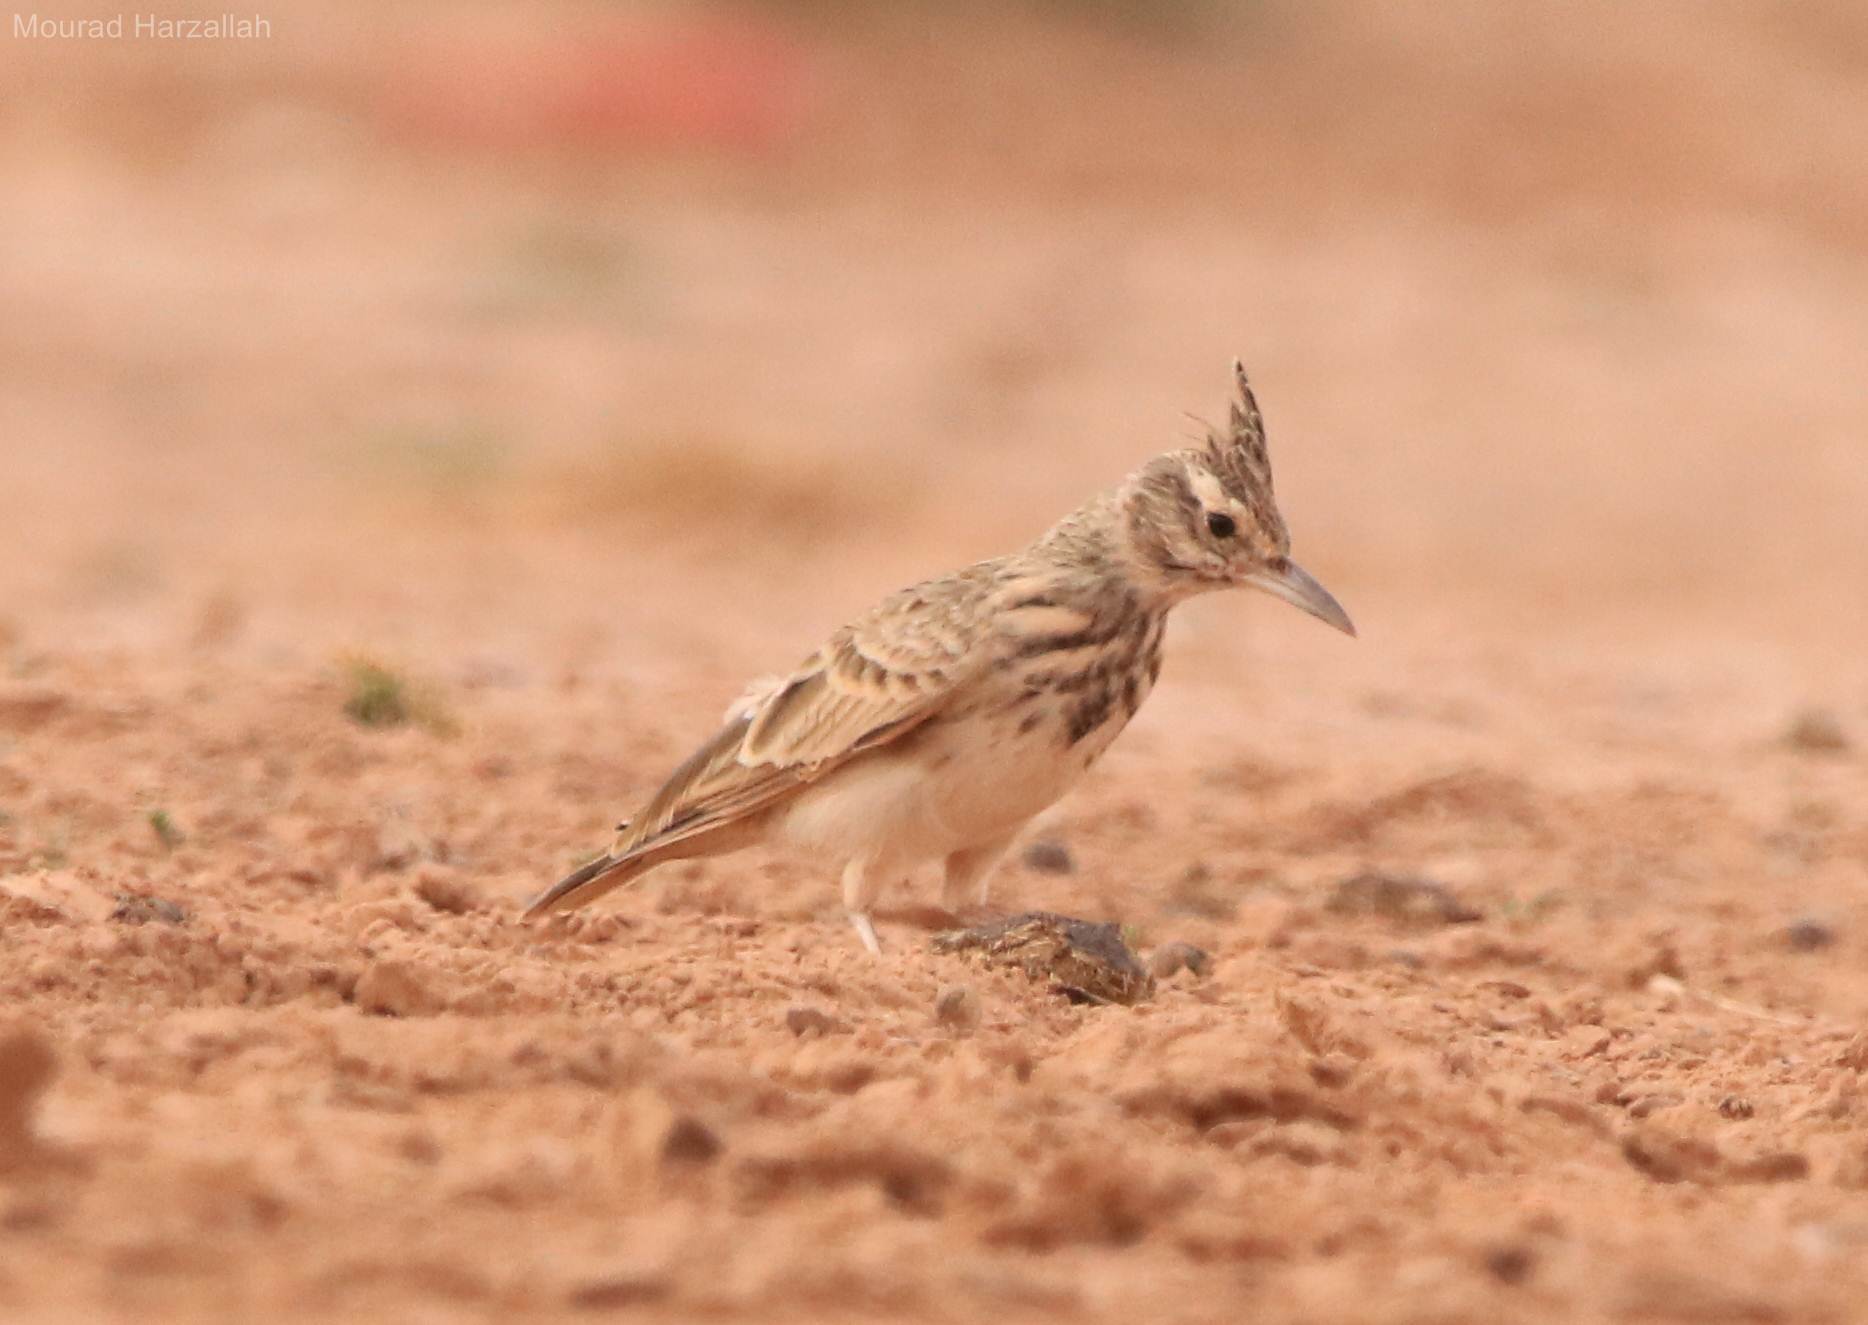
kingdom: Animalia
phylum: Chordata
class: Aves
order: Passeriformes
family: Alaudidae
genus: Galerida
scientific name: Galerida cristata
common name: Crested lark
